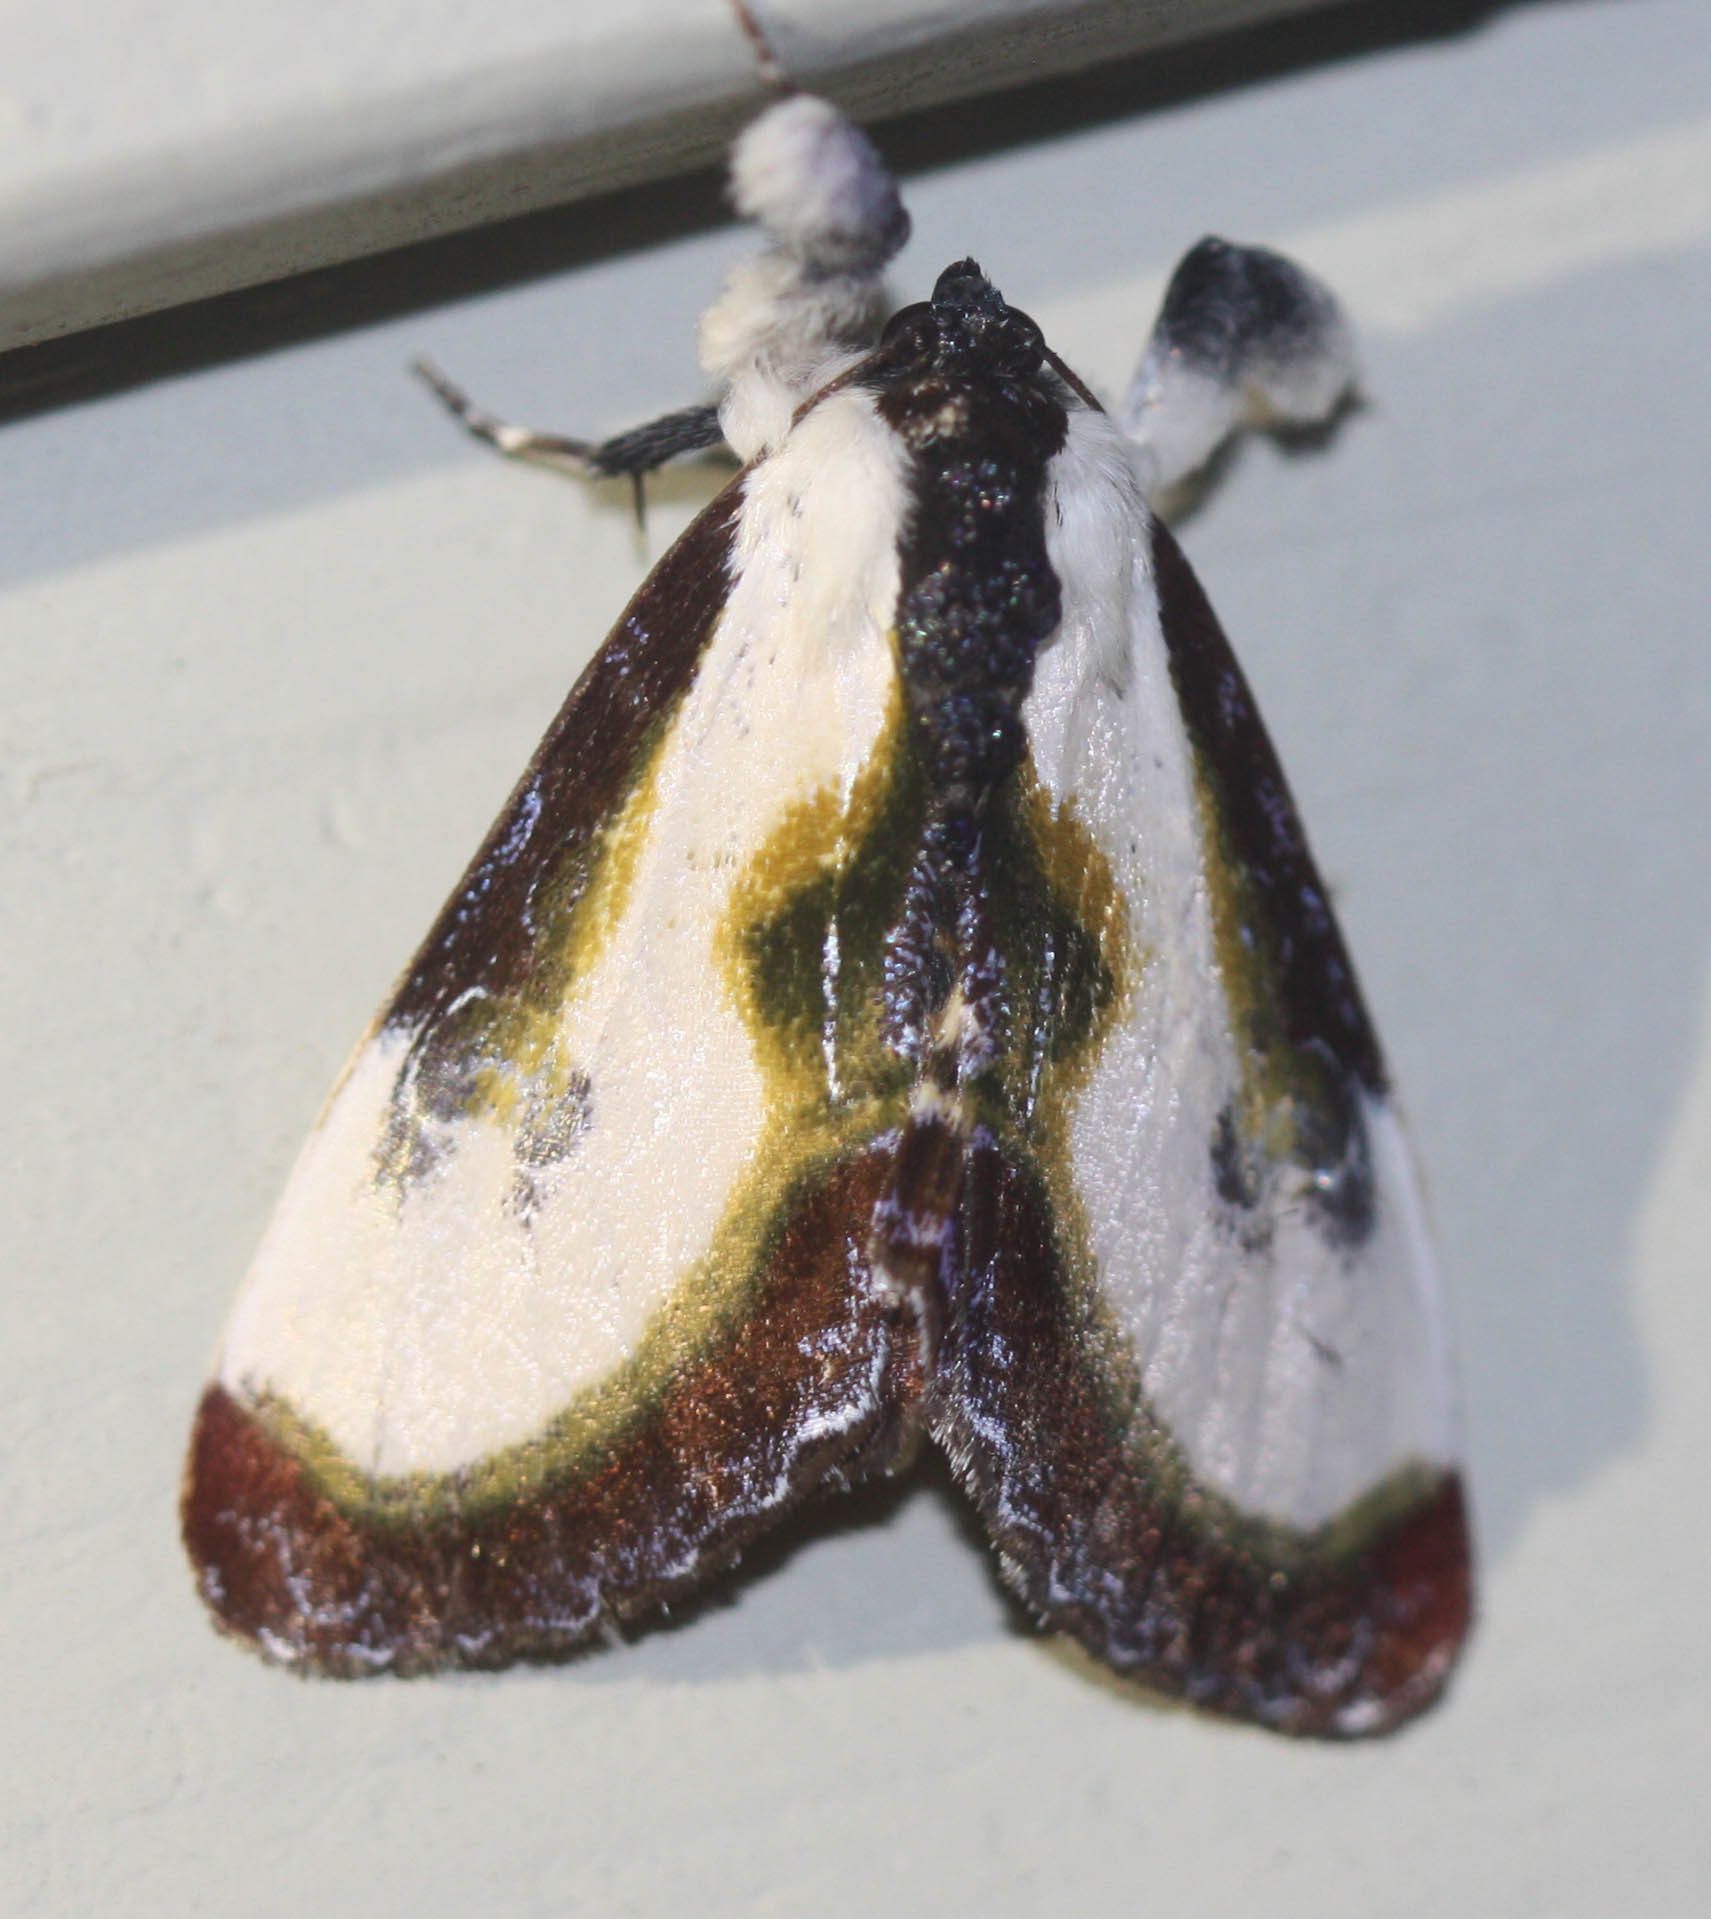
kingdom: Animalia
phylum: Arthropoda
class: Insecta
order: Lepidoptera
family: Noctuidae
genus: Eudryas
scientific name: Eudryas grata
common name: Beautiful wood-nymph
